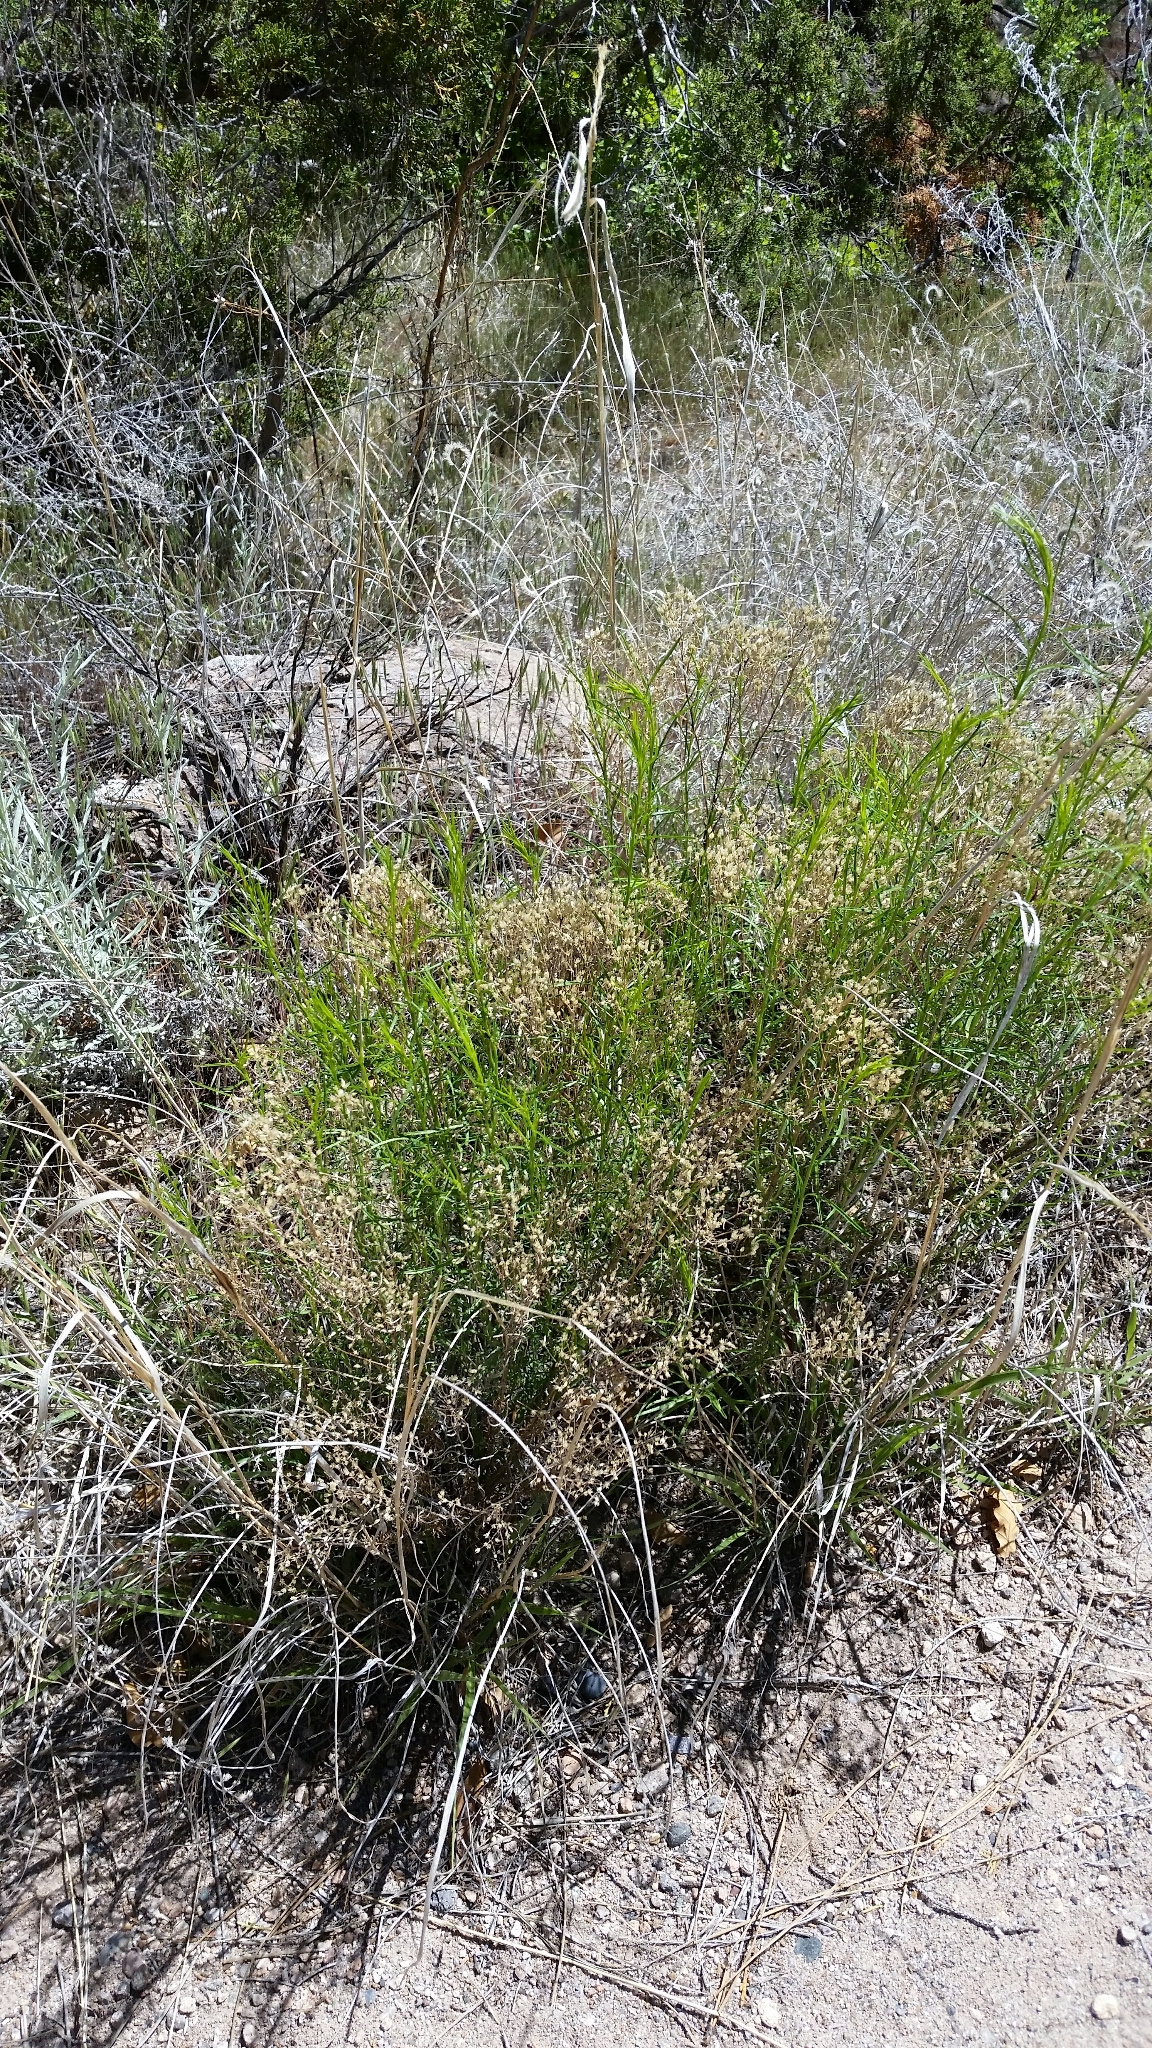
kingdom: Plantae
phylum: Tracheophyta
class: Magnoliopsida
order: Asterales
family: Asteraceae
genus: Gutierrezia
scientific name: Gutierrezia sarothrae
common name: Broom snakeweed
